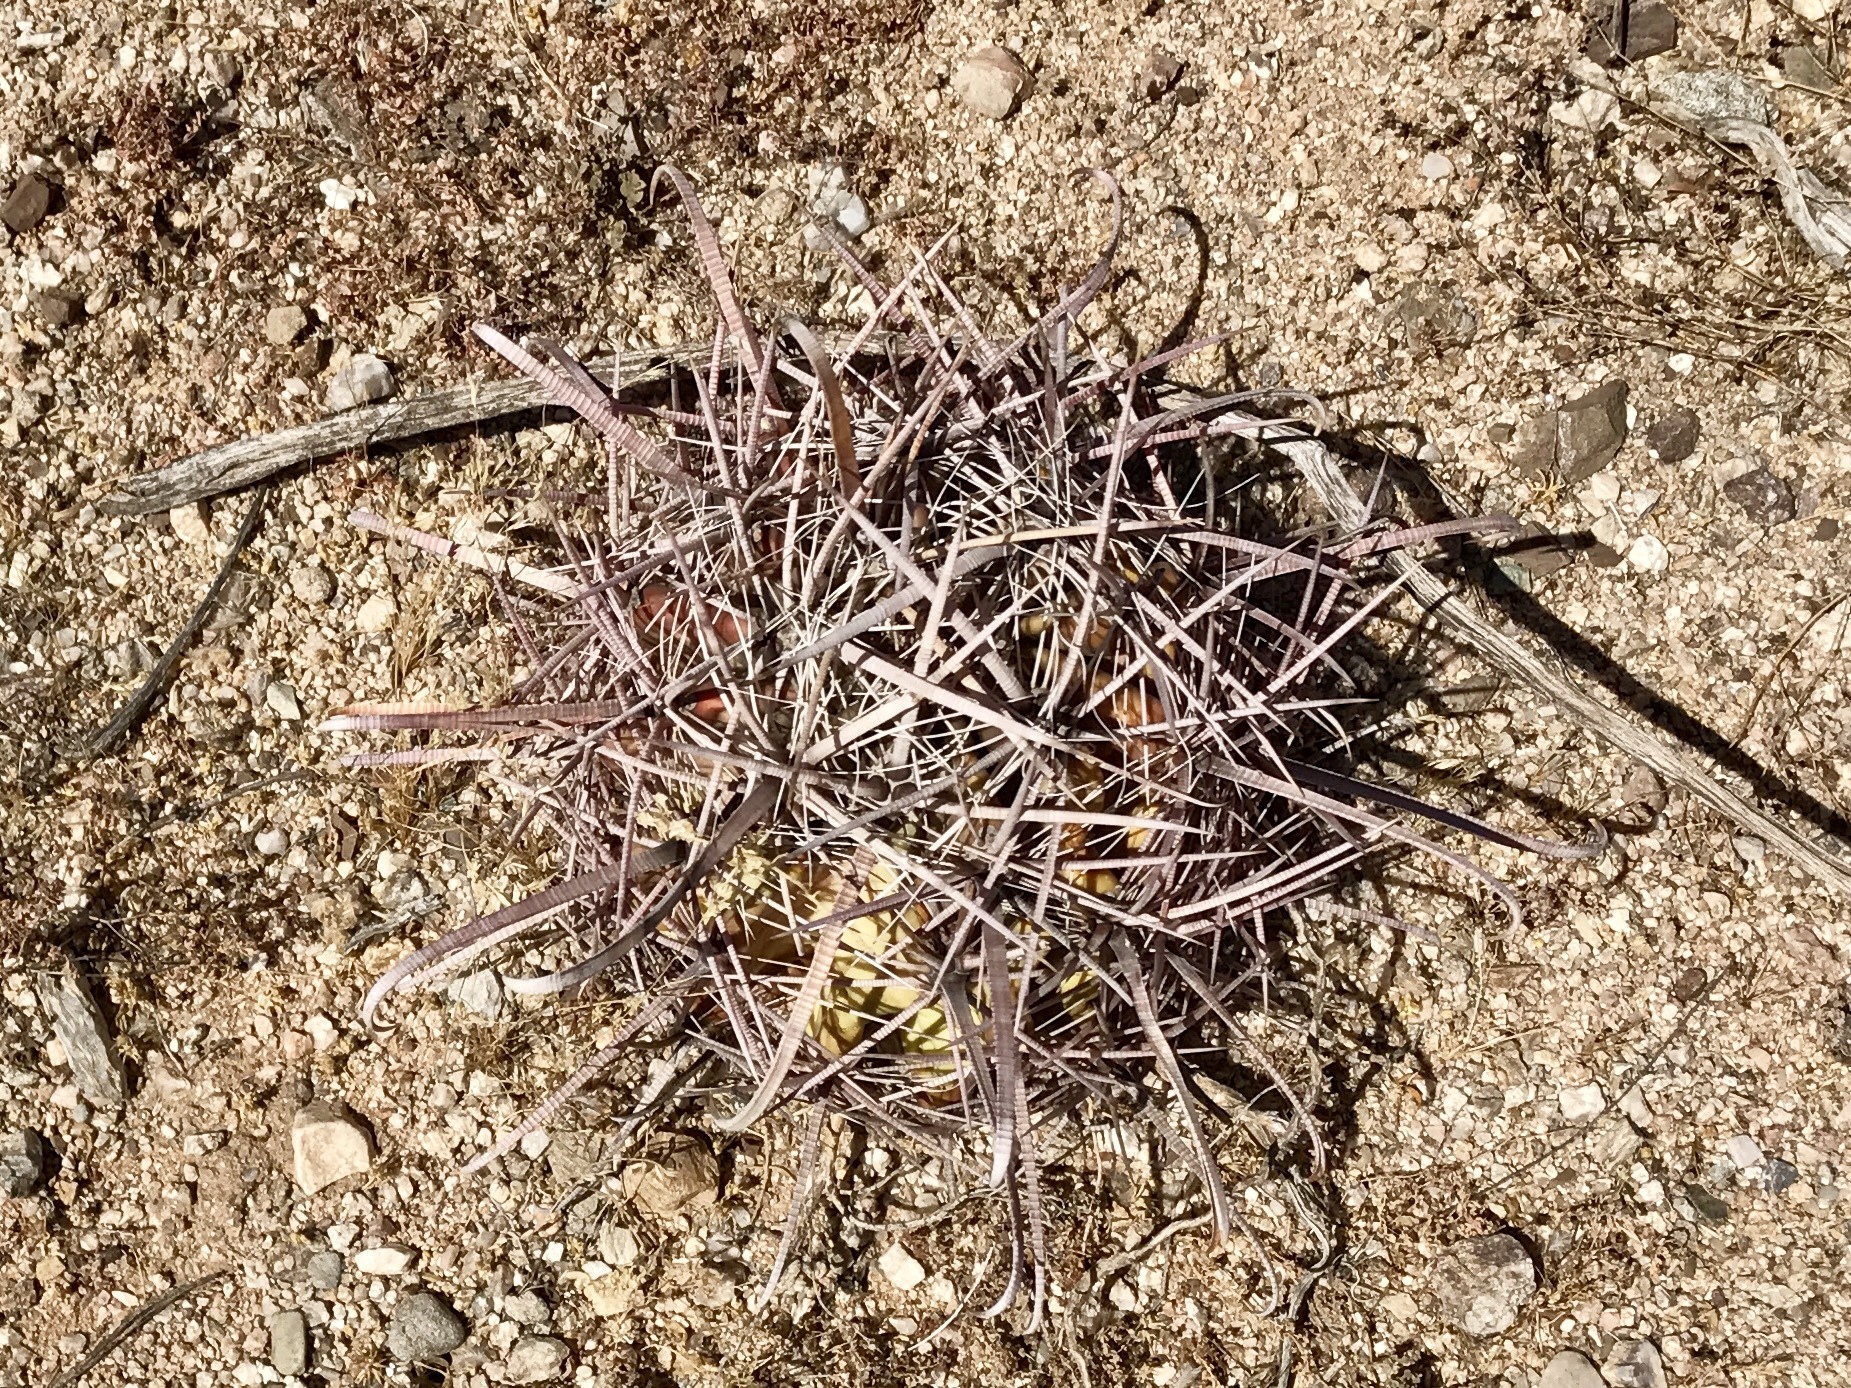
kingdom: Plantae
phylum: Tracheophyta
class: Magnoliopsida
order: Caryophyllales
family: Cactaceae
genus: Ferocactus
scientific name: Ferocactus wislizeni
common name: Candy barrel cactus
